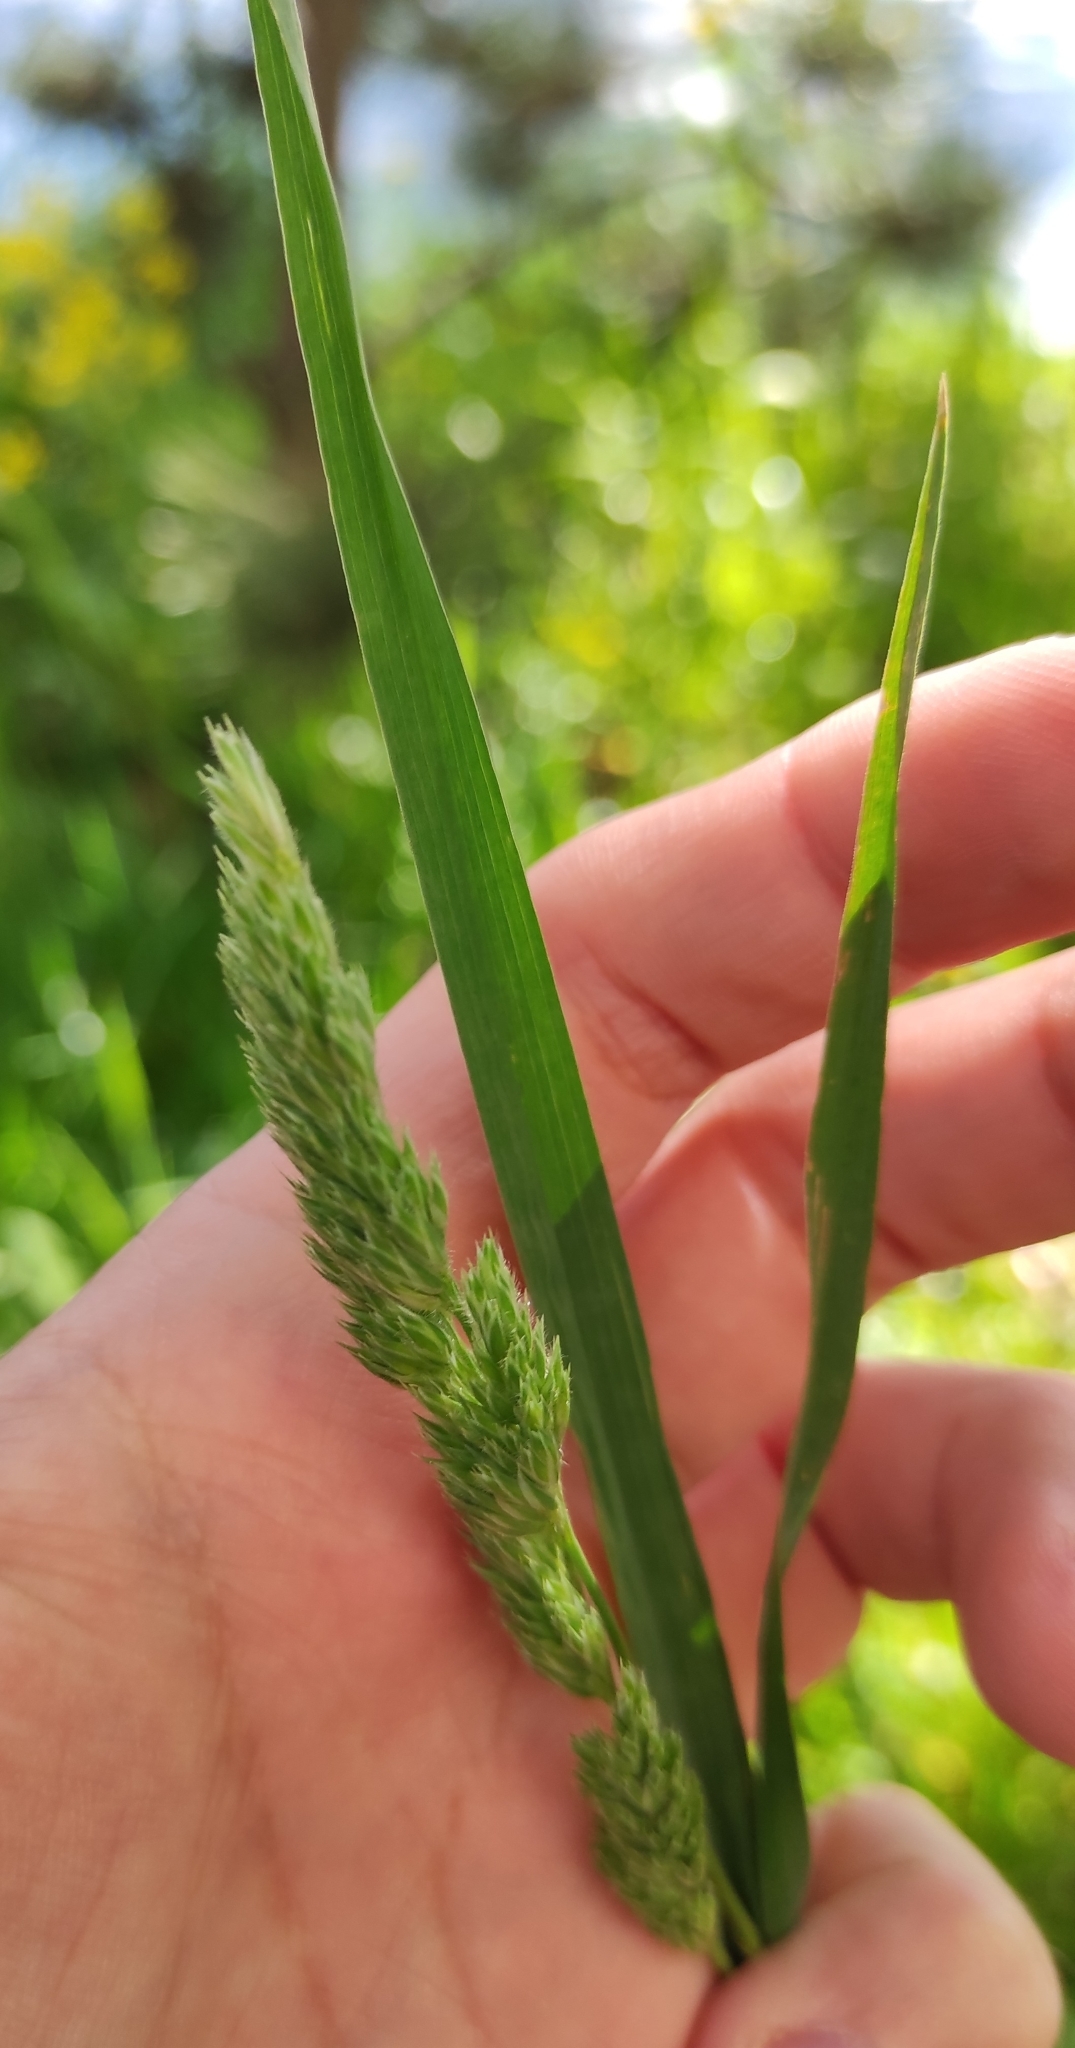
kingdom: Plantae
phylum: Tracheophyta
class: Liliopsida
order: Poales
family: Poaceae
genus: Dactylis
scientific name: Dactylis glomerata
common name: Orchardgrass
